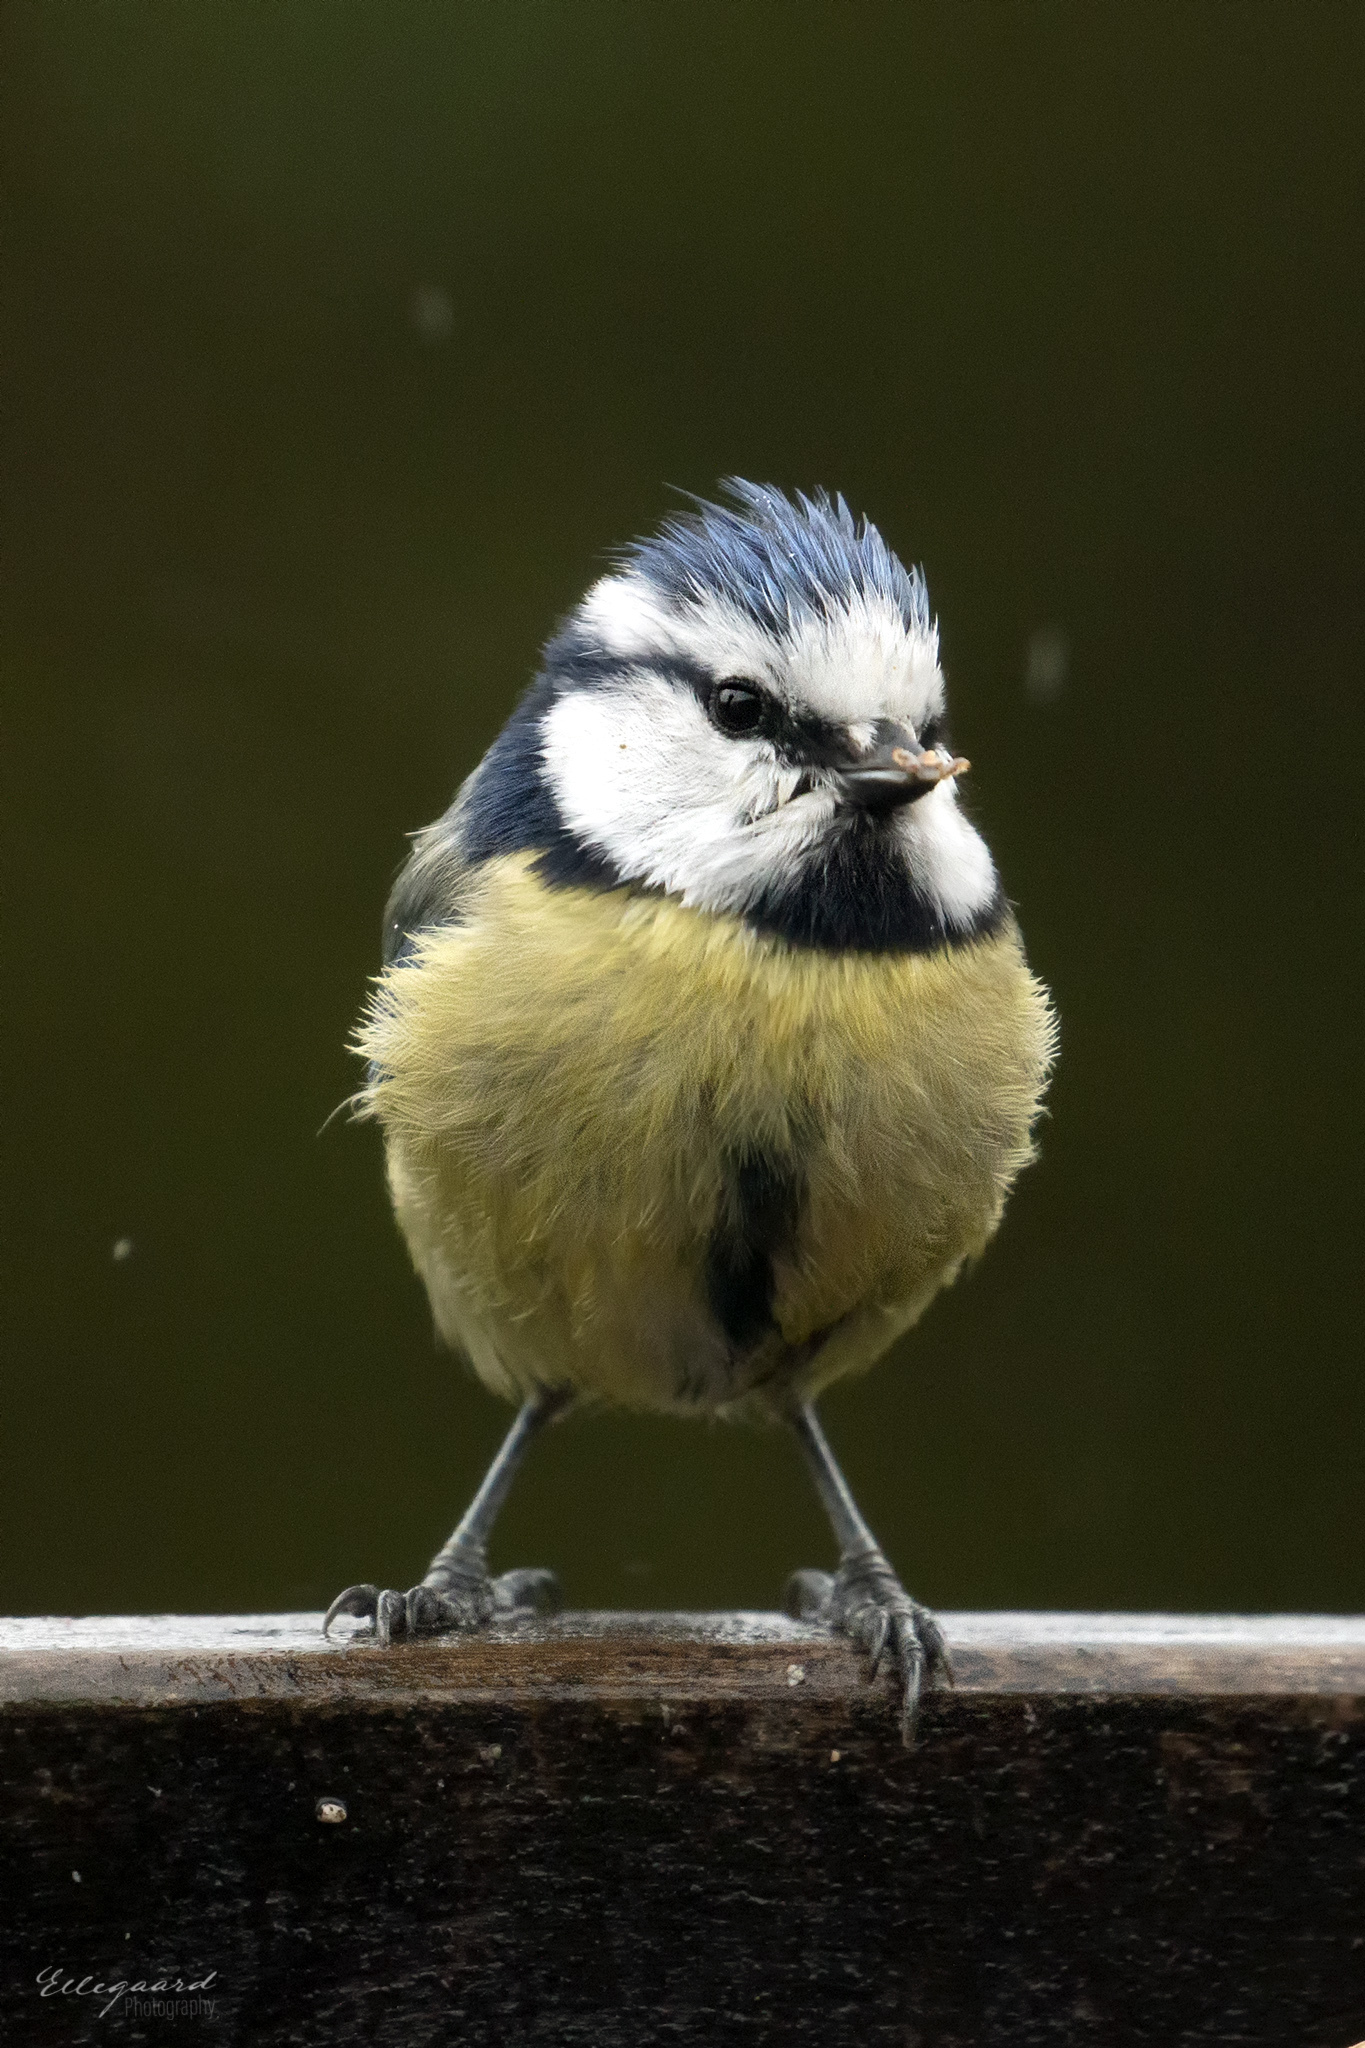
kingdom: Animalia
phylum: Chordata
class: Aves
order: Passeriformes
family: Paridae
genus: Cyanistes
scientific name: Cyanistes caeruleus
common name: Eurasian blue tit
